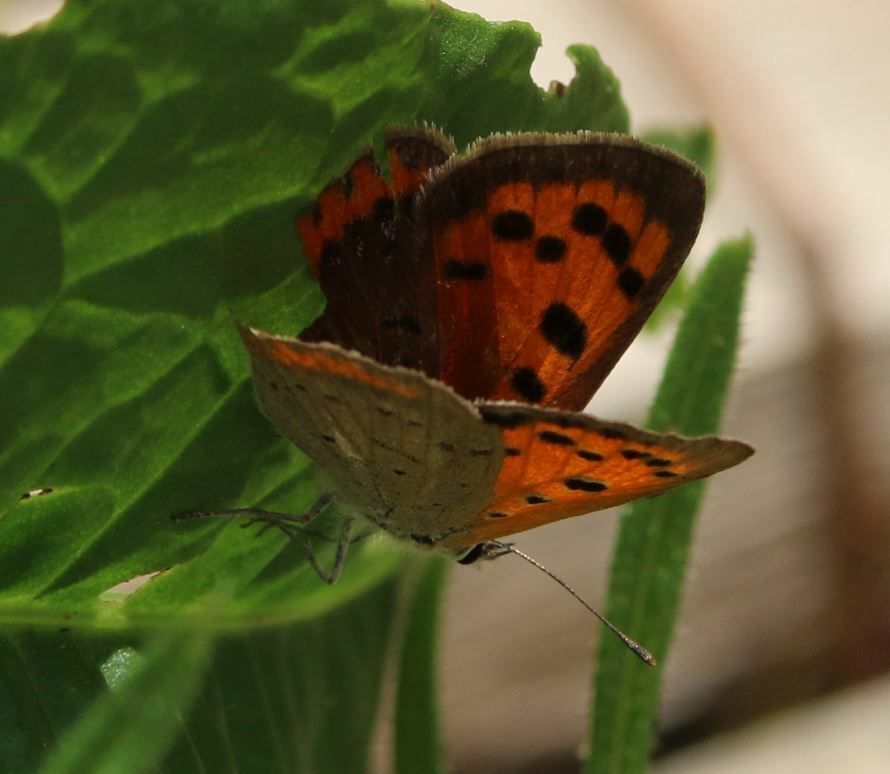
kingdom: Animalia
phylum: Arthropoda
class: Insecta
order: Lepidoptera
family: Lycaenidae
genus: Lycaena
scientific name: Lycaena phlaeas
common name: Small copper
